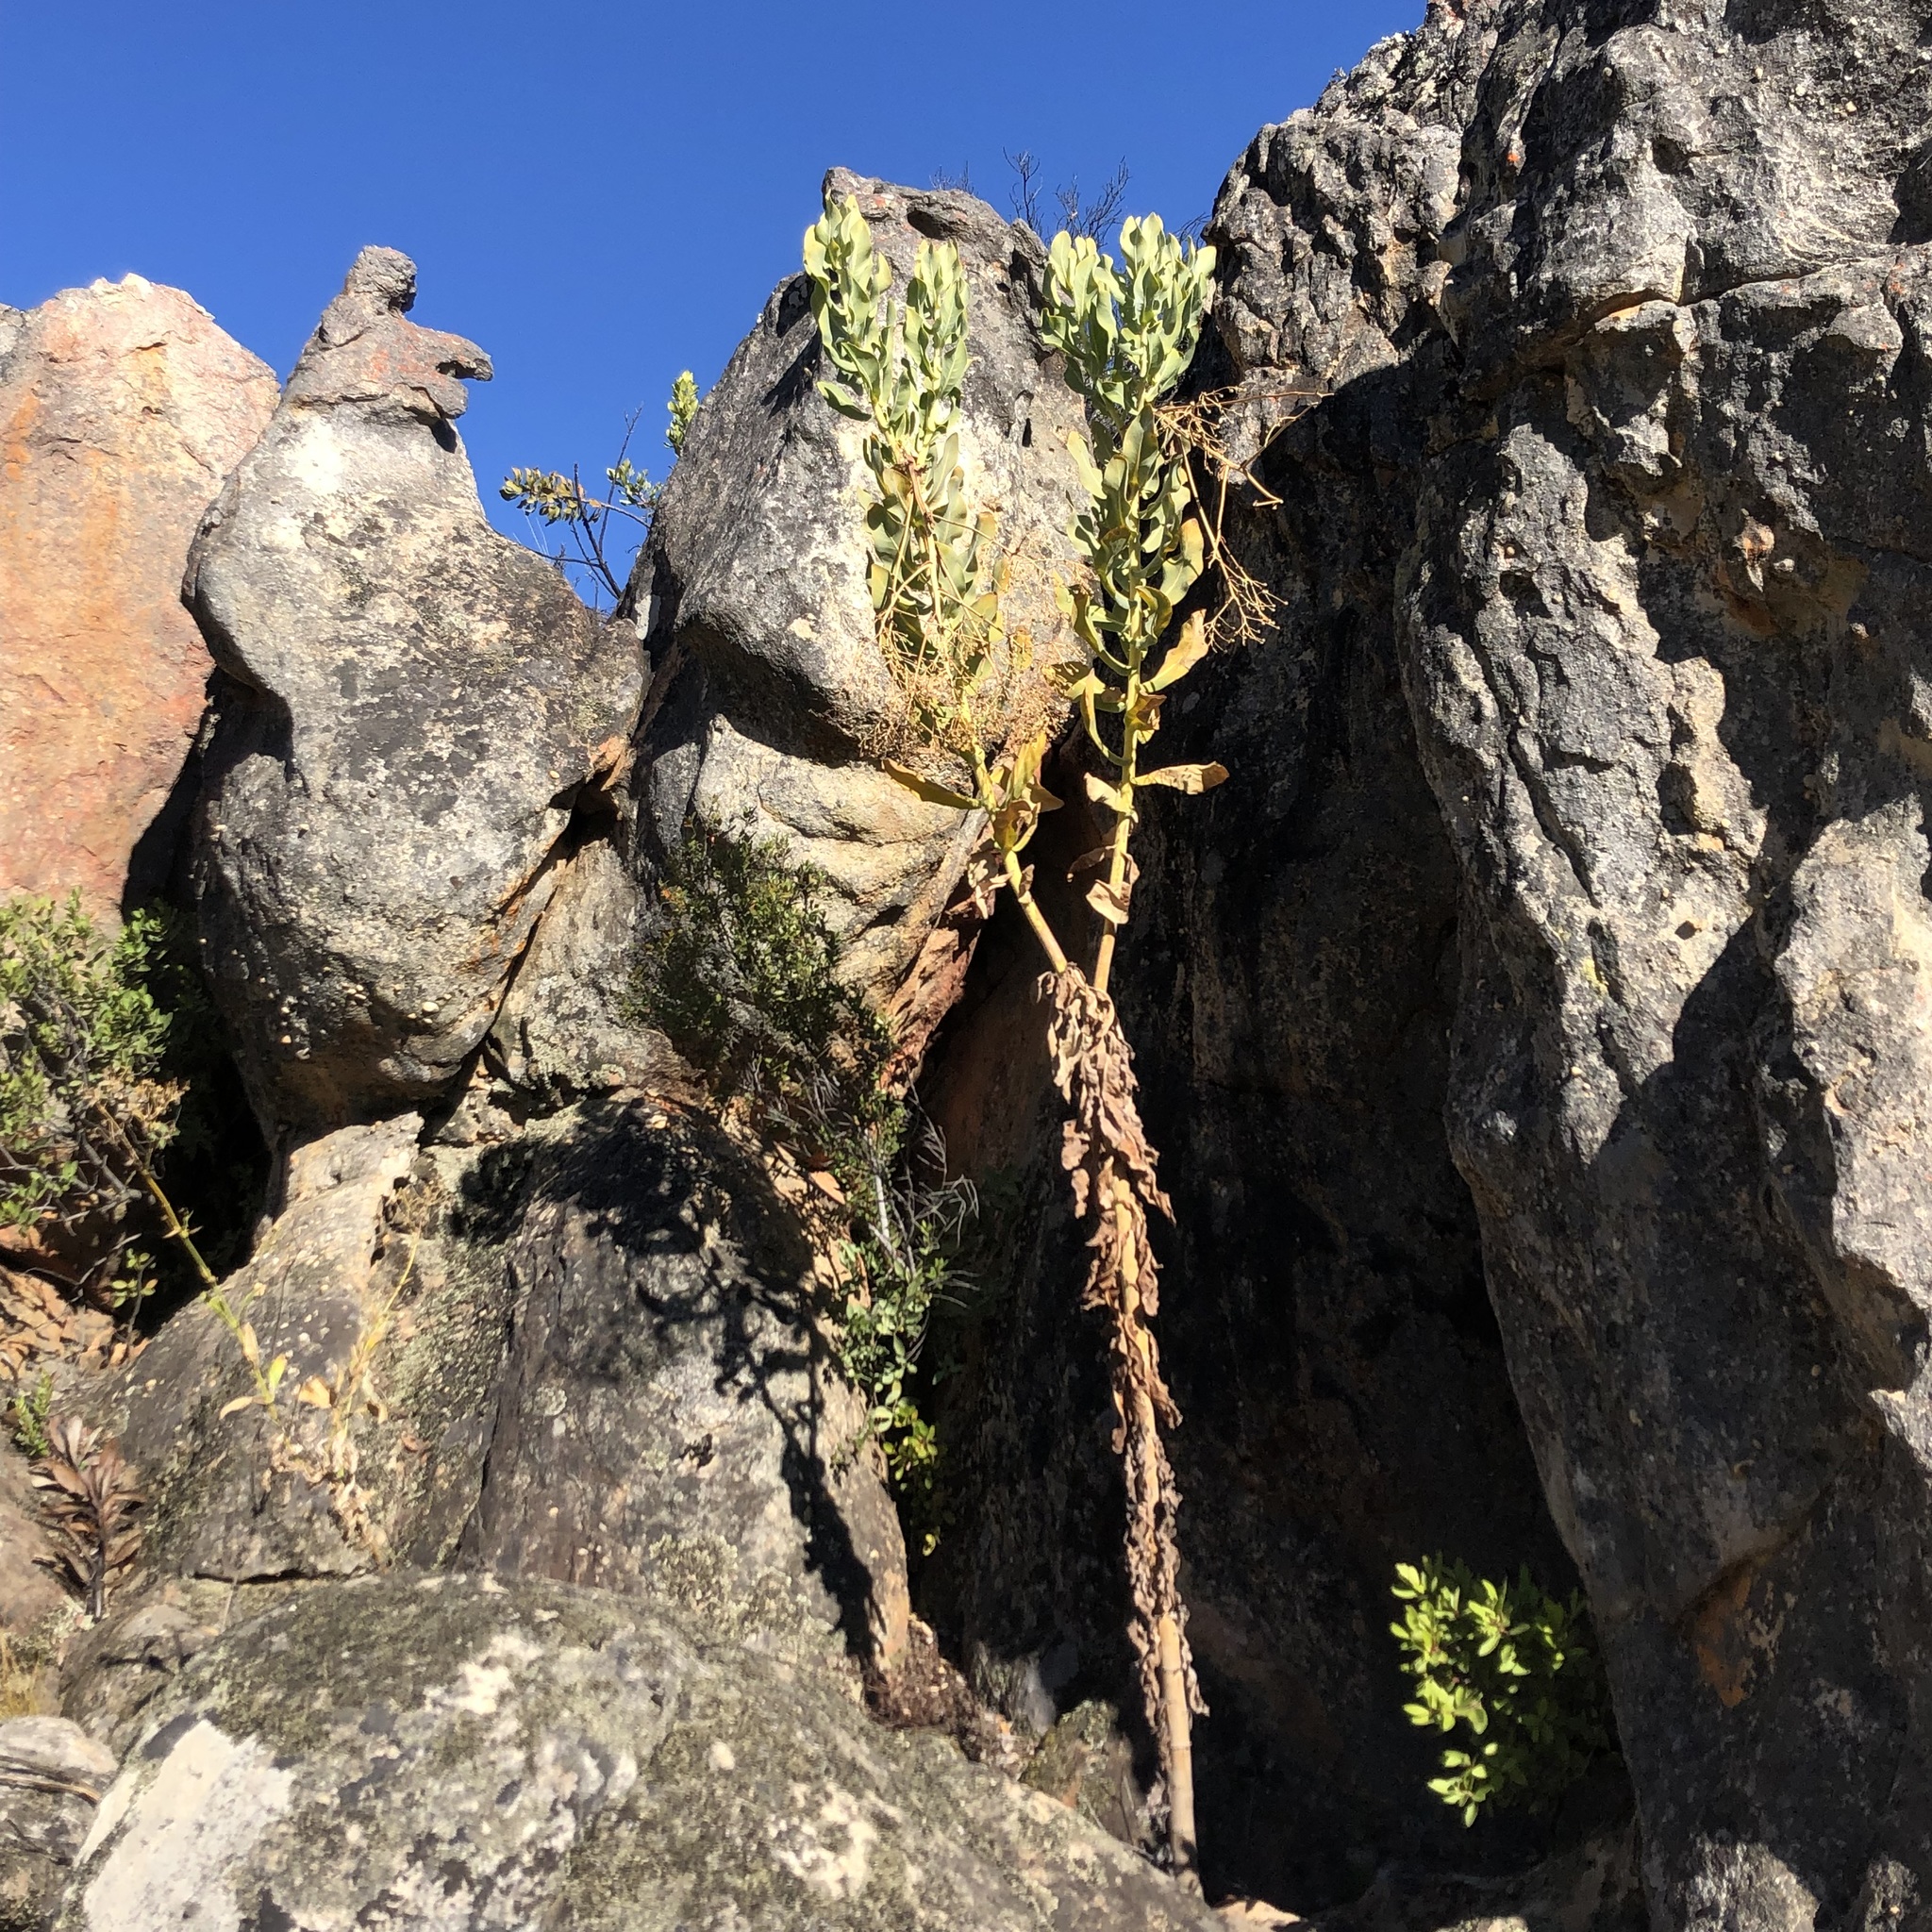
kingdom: Plantae
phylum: Tracheophyta
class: Magnoliopsida
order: Asterales
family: Asteraceae
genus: Othonna
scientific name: Othonna parviflora
